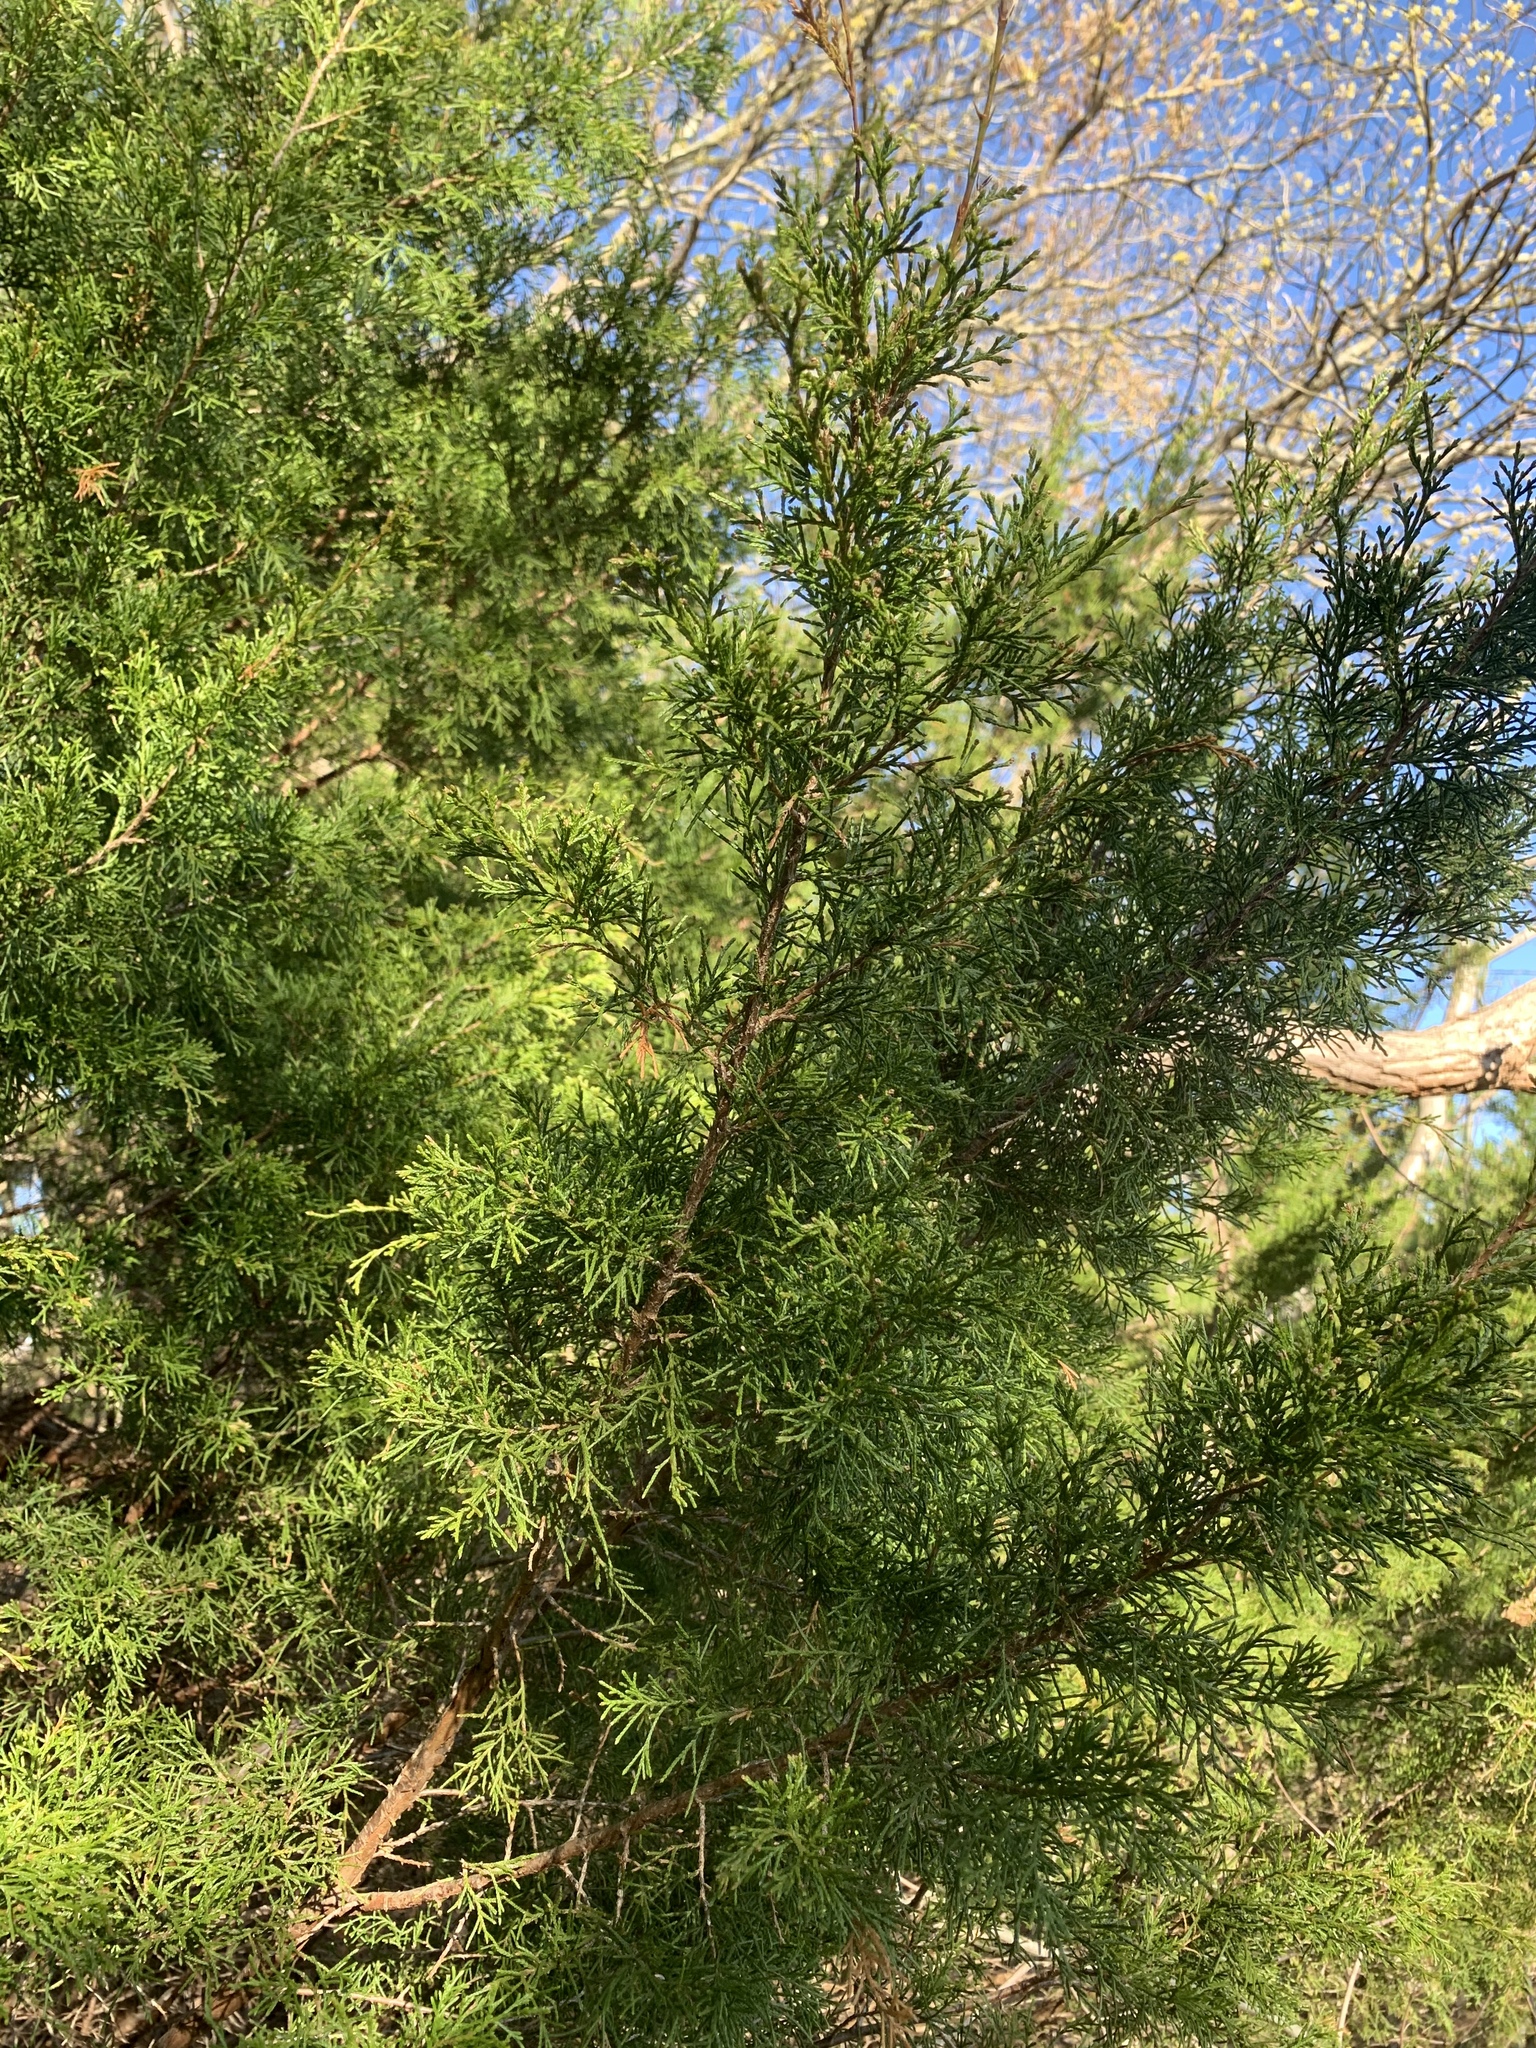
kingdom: Plantae
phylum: Tracheophyta
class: Pinopsida
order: Pinales
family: Cupressaceae
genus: Juniperus
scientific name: Juniperus virginiana
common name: Red juniper
